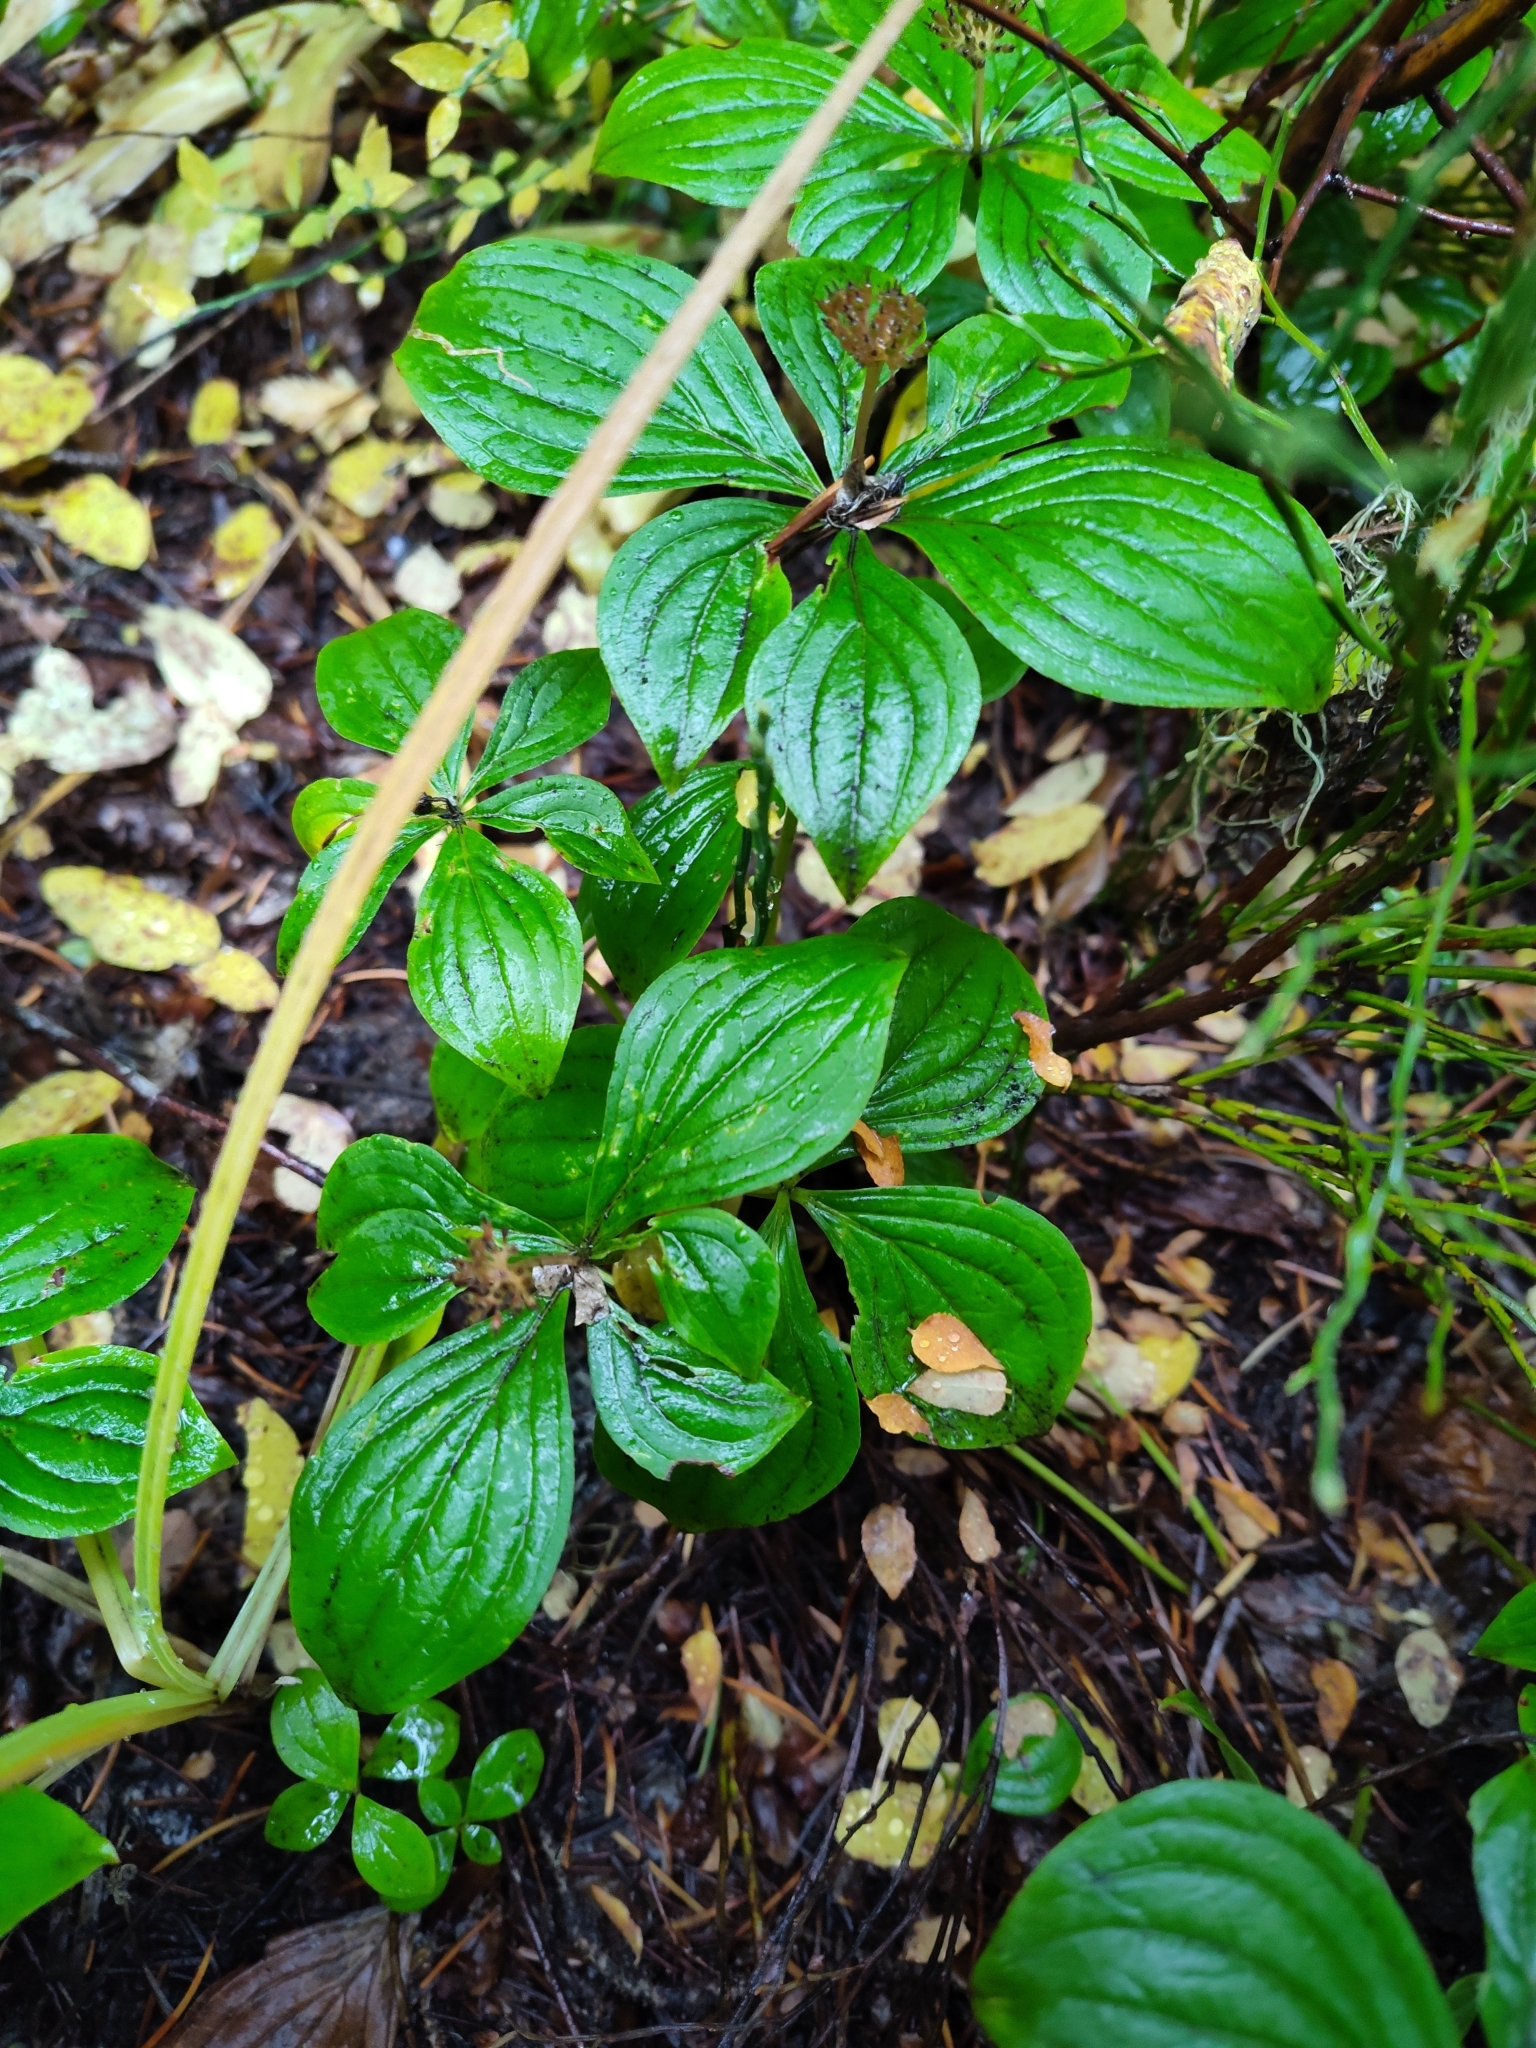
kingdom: Plantae
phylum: Tracheophyta
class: Magnoliopsida
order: Cornales
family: Cornaceae
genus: Cornus
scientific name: Cornus unalaschkensis
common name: Alaska bunchberry
